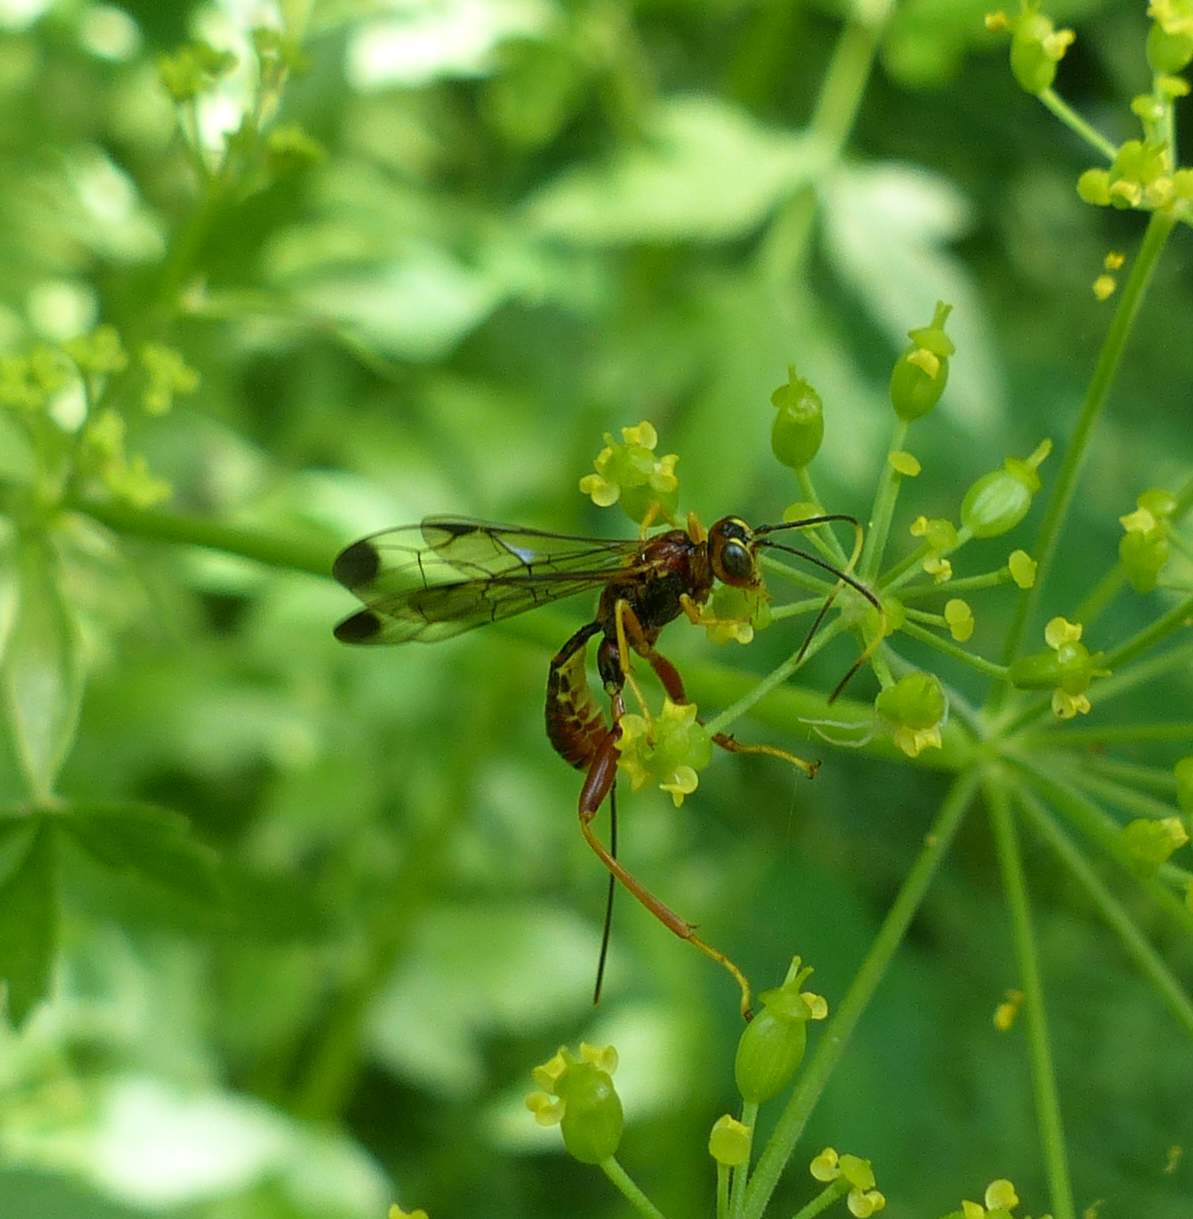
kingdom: Animalia
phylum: Arthropoda
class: Insecta
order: Hymenoptera
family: Ichneumonidae
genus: Spilopteron
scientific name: Spilopteron vicinum
